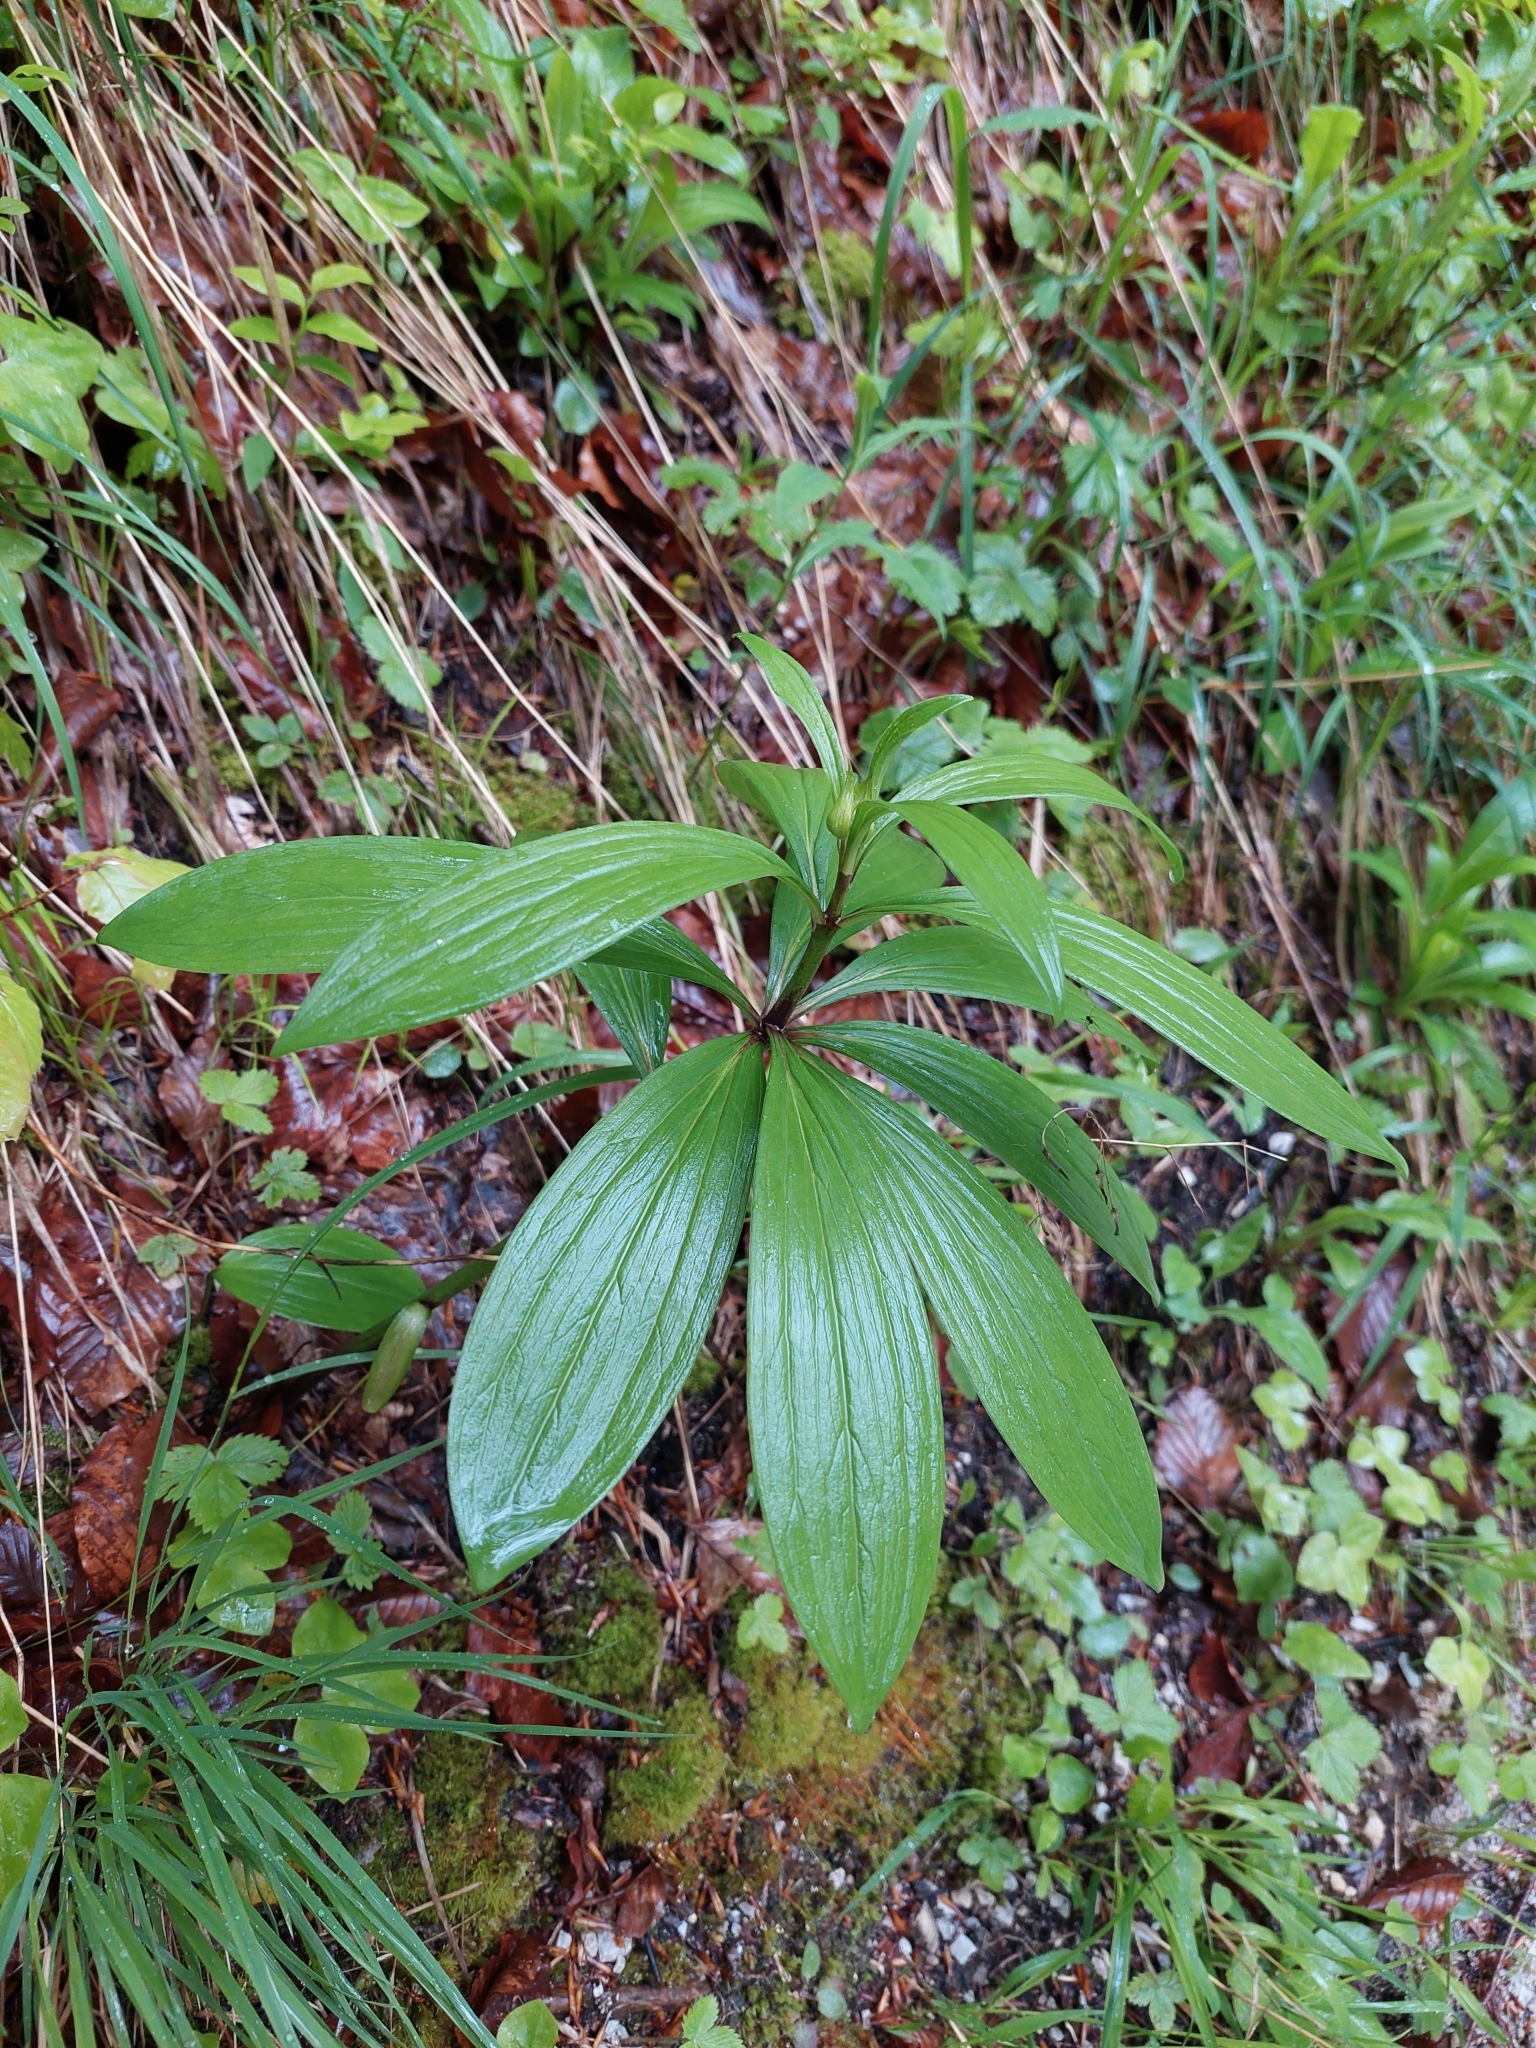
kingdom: Plantae
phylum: Tracheophyta
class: Liliopsida
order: Liliales
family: Liliaceae
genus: Lilium
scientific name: Lilium martagon
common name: Martagon lily
